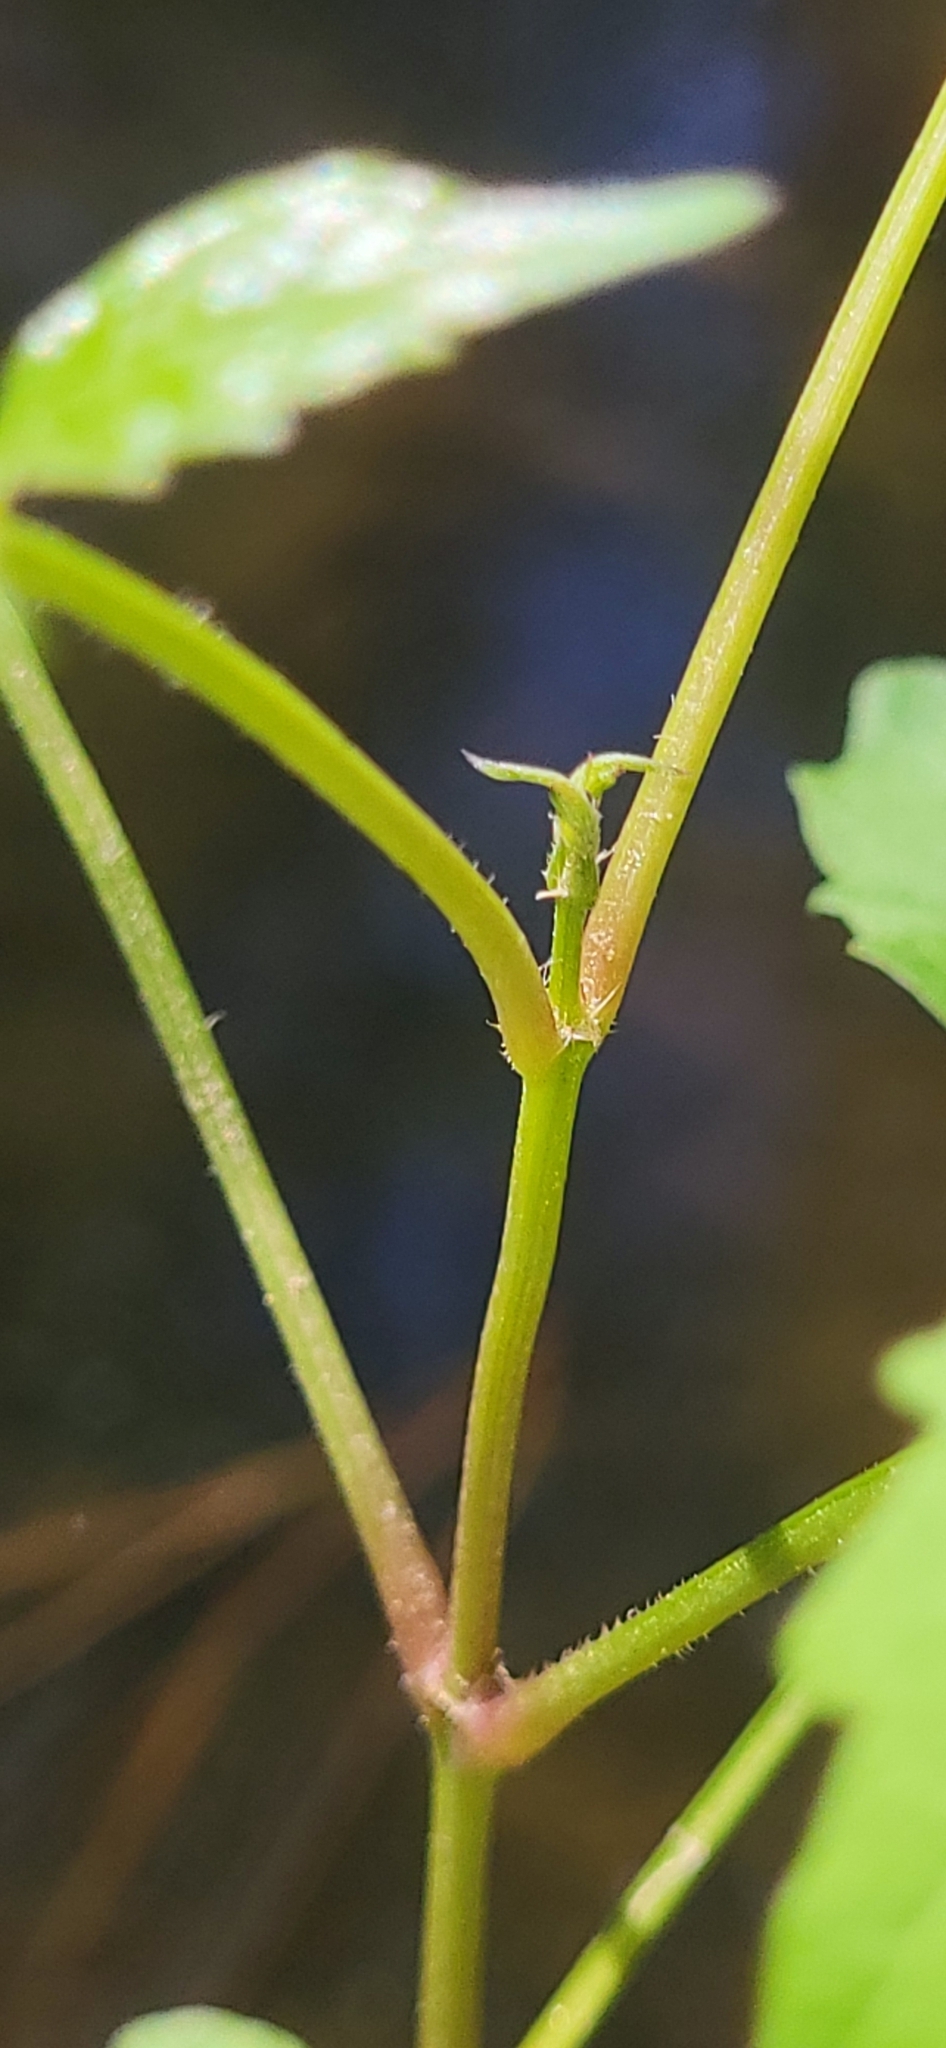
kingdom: Plantae
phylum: Tracheophyta
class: Magnoliopsida
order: Lamiales
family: Bignoniaceae
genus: Campsis
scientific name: Campsis radicans
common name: Trumpet-creeper
